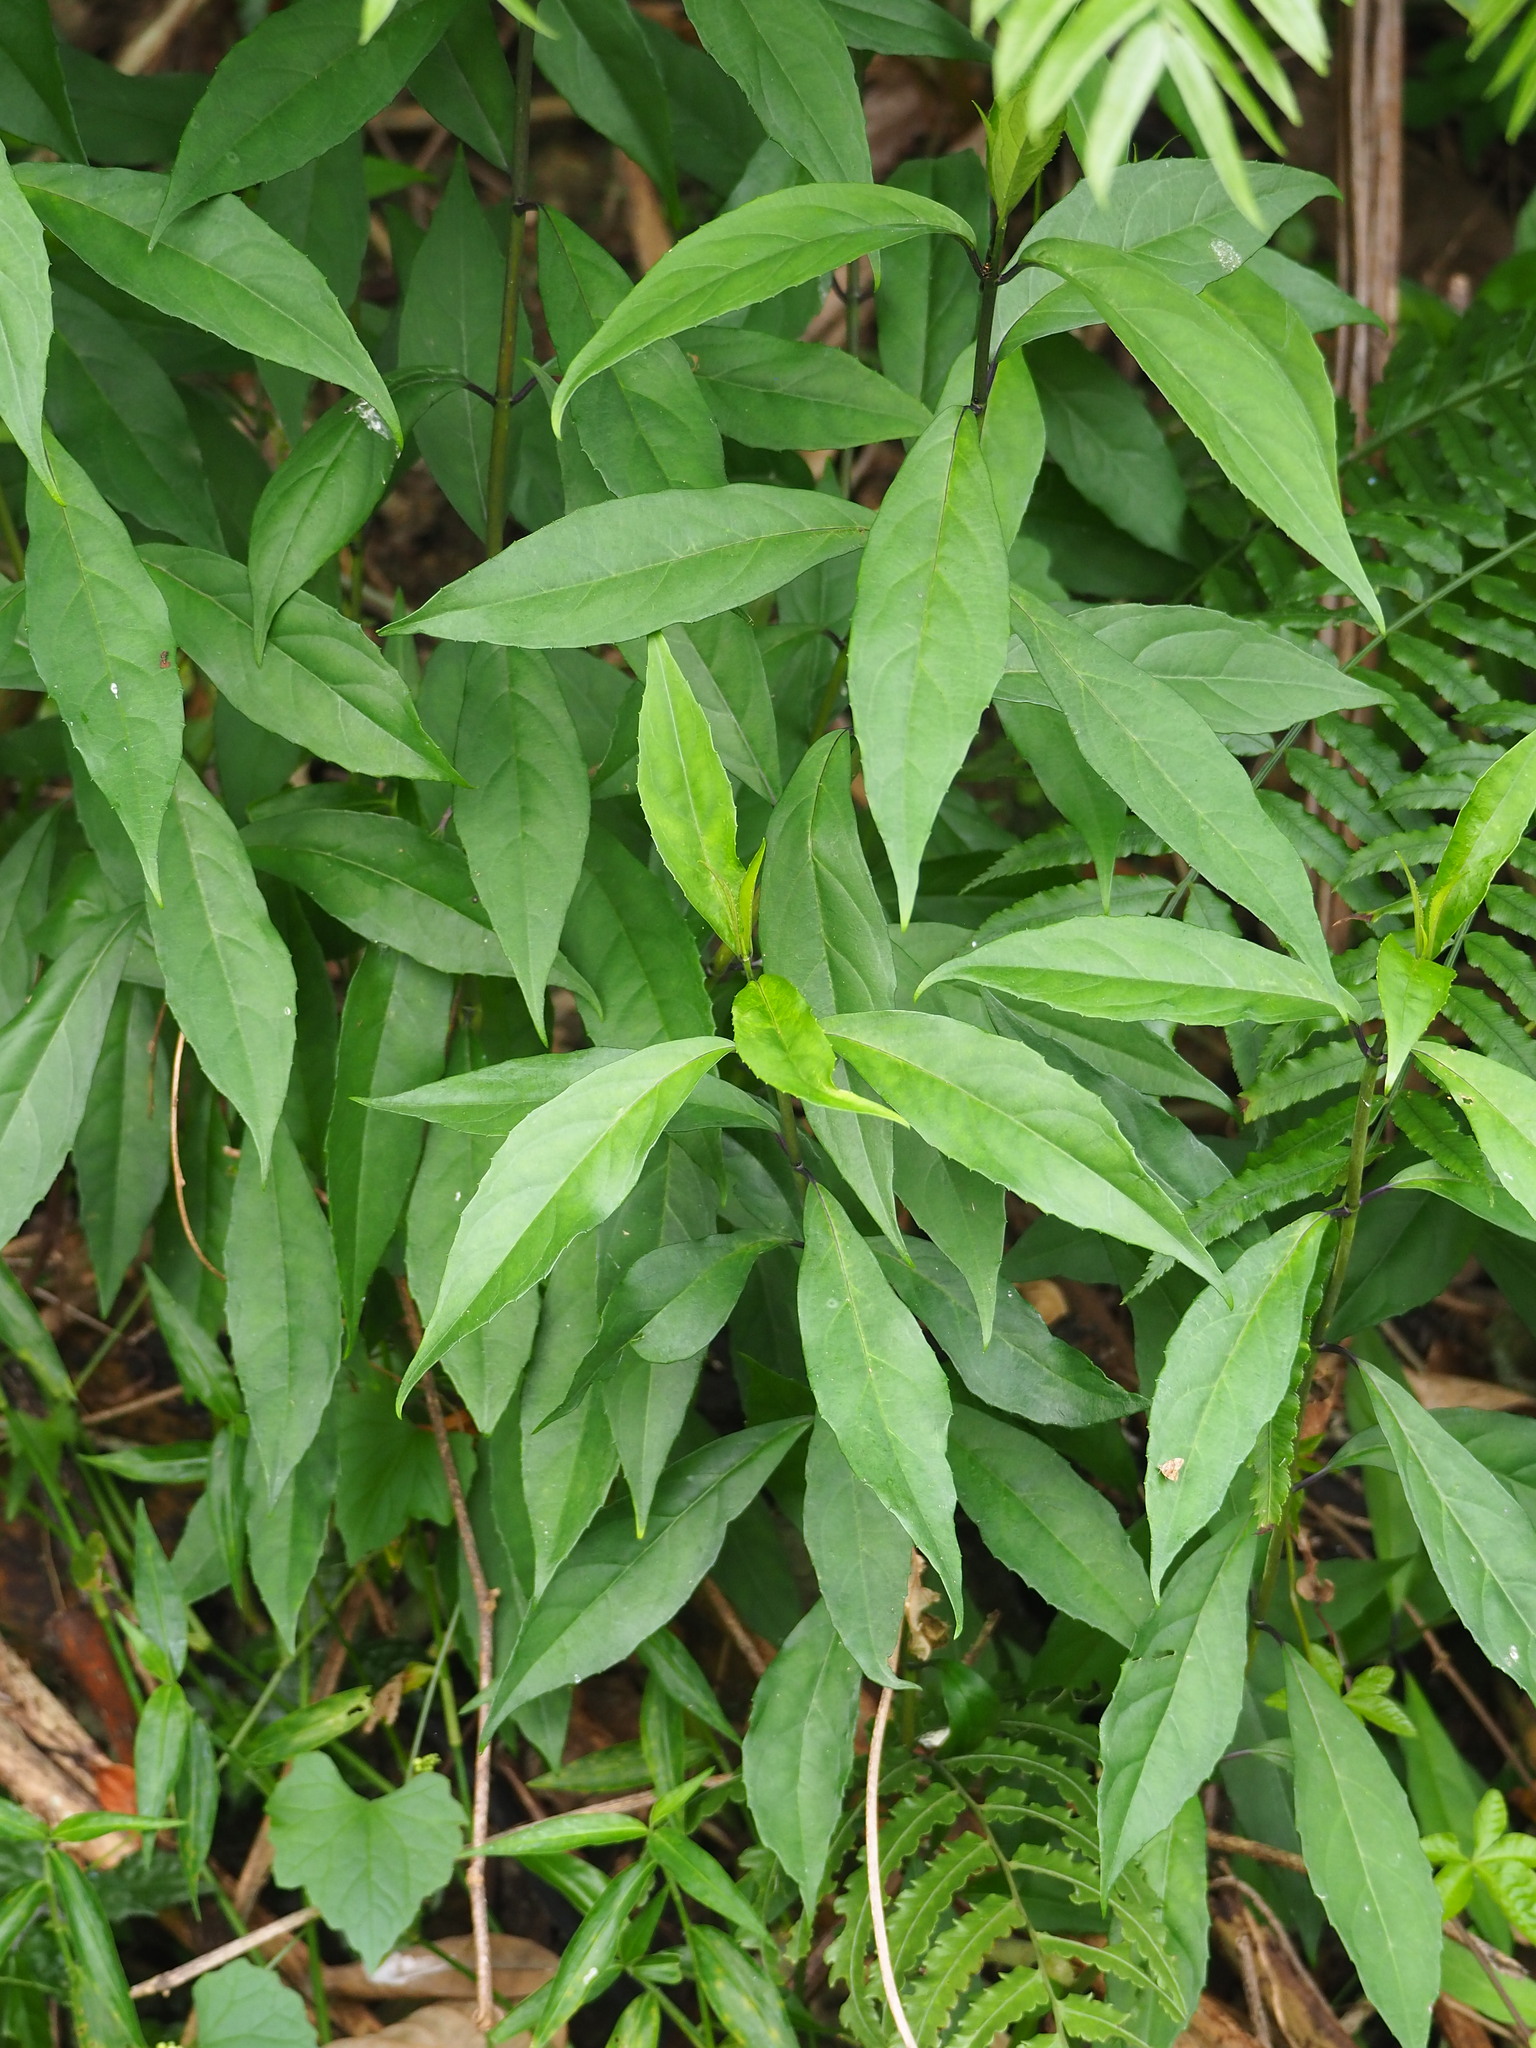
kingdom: Plantae
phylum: Tracheophyta
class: Magnoliopsida
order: Cornales
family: Hydrangeaceae
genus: Hydrangea
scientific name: Hydrangea chinensis
